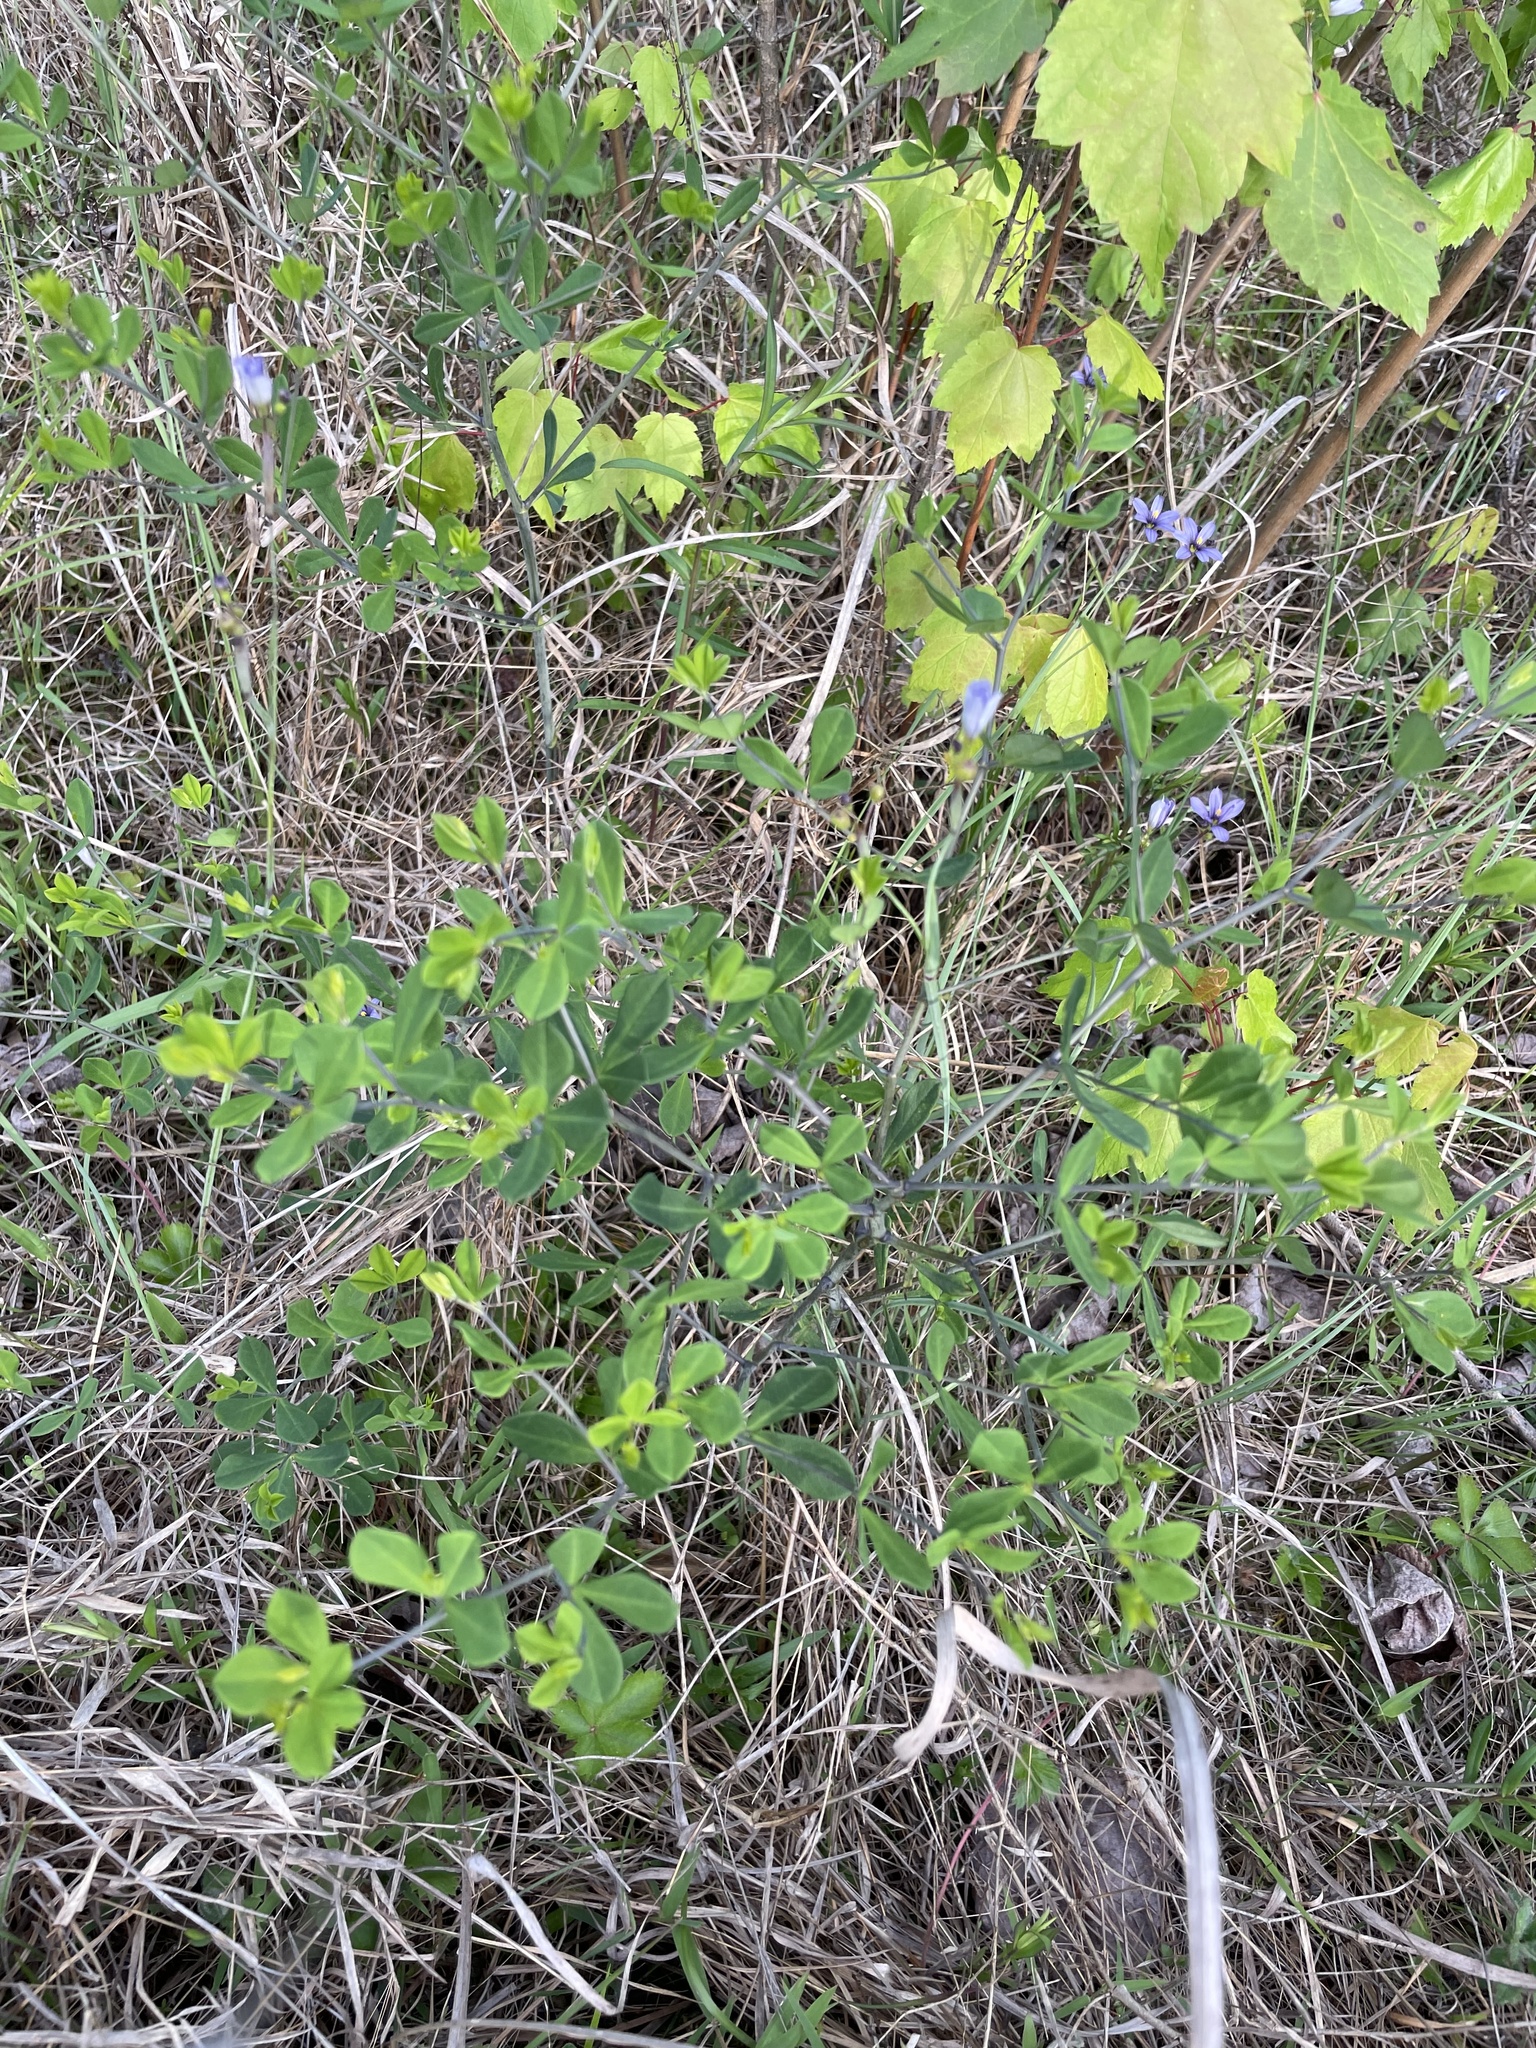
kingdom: Plantae
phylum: Tracheophyta
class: Magnoliopsida
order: Fabales
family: Fabaceae
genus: Baptisia
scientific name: Baptisia tinctoria
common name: Wild indigo
